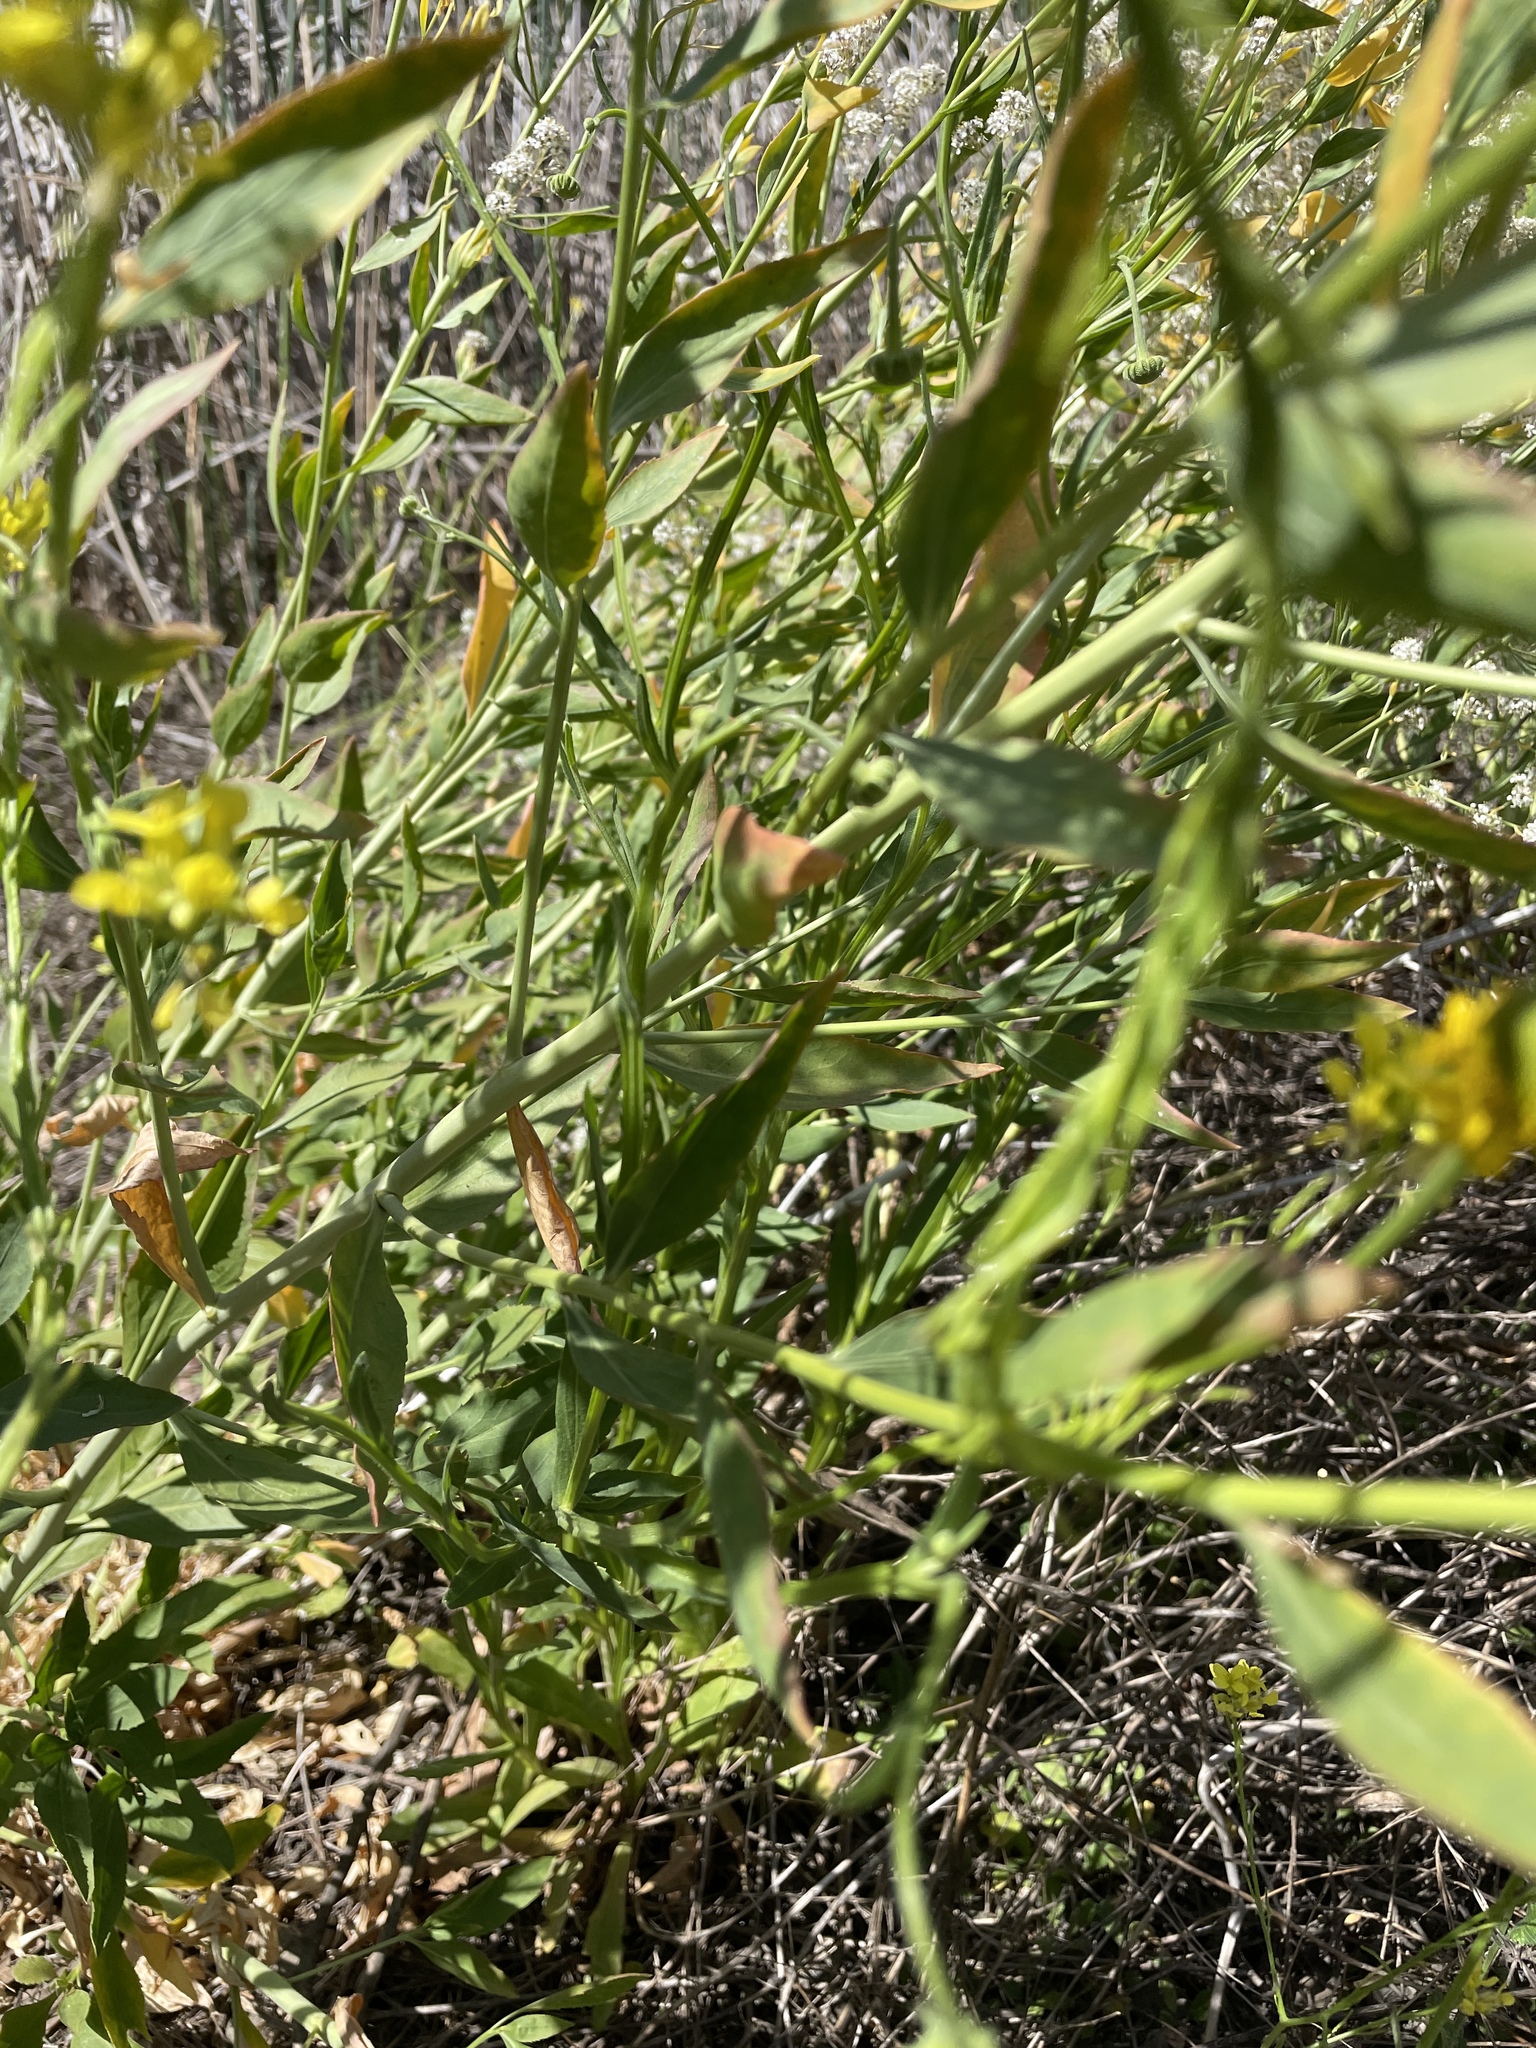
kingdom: Plantae
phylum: Tracheophyta
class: Magnoliopsida
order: Brassicales
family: Brassicaceae
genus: Lepidium
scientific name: Lepidium latifolium
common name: Dittander
